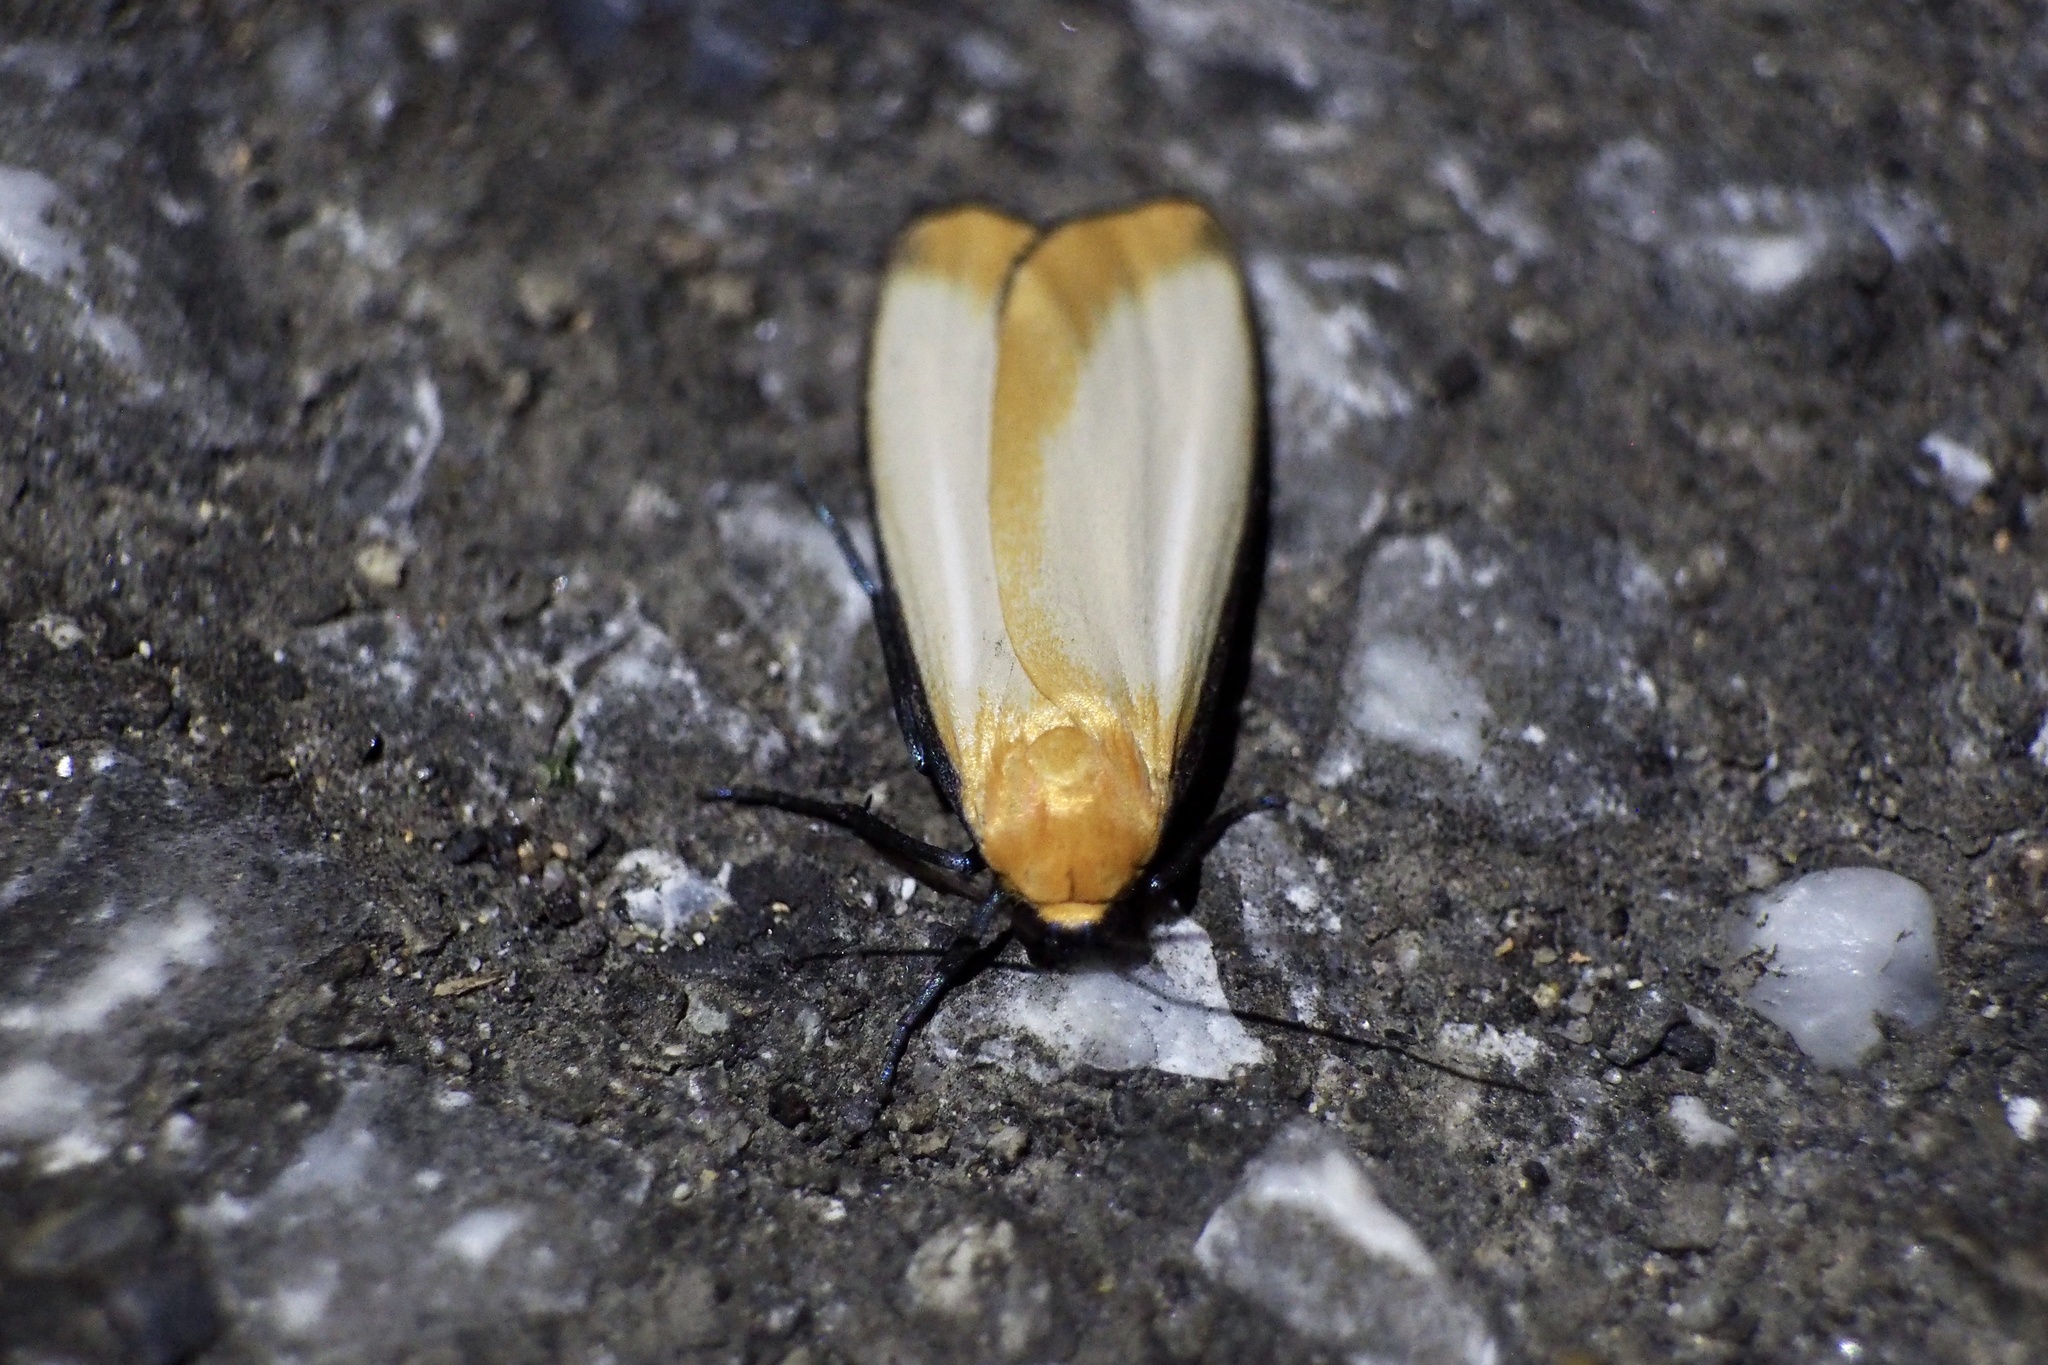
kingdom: Animalia
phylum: Arthropoda
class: Insecta
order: Lepidoptera
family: Erebidae
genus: Conilepia
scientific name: Conilepia nigricosta
